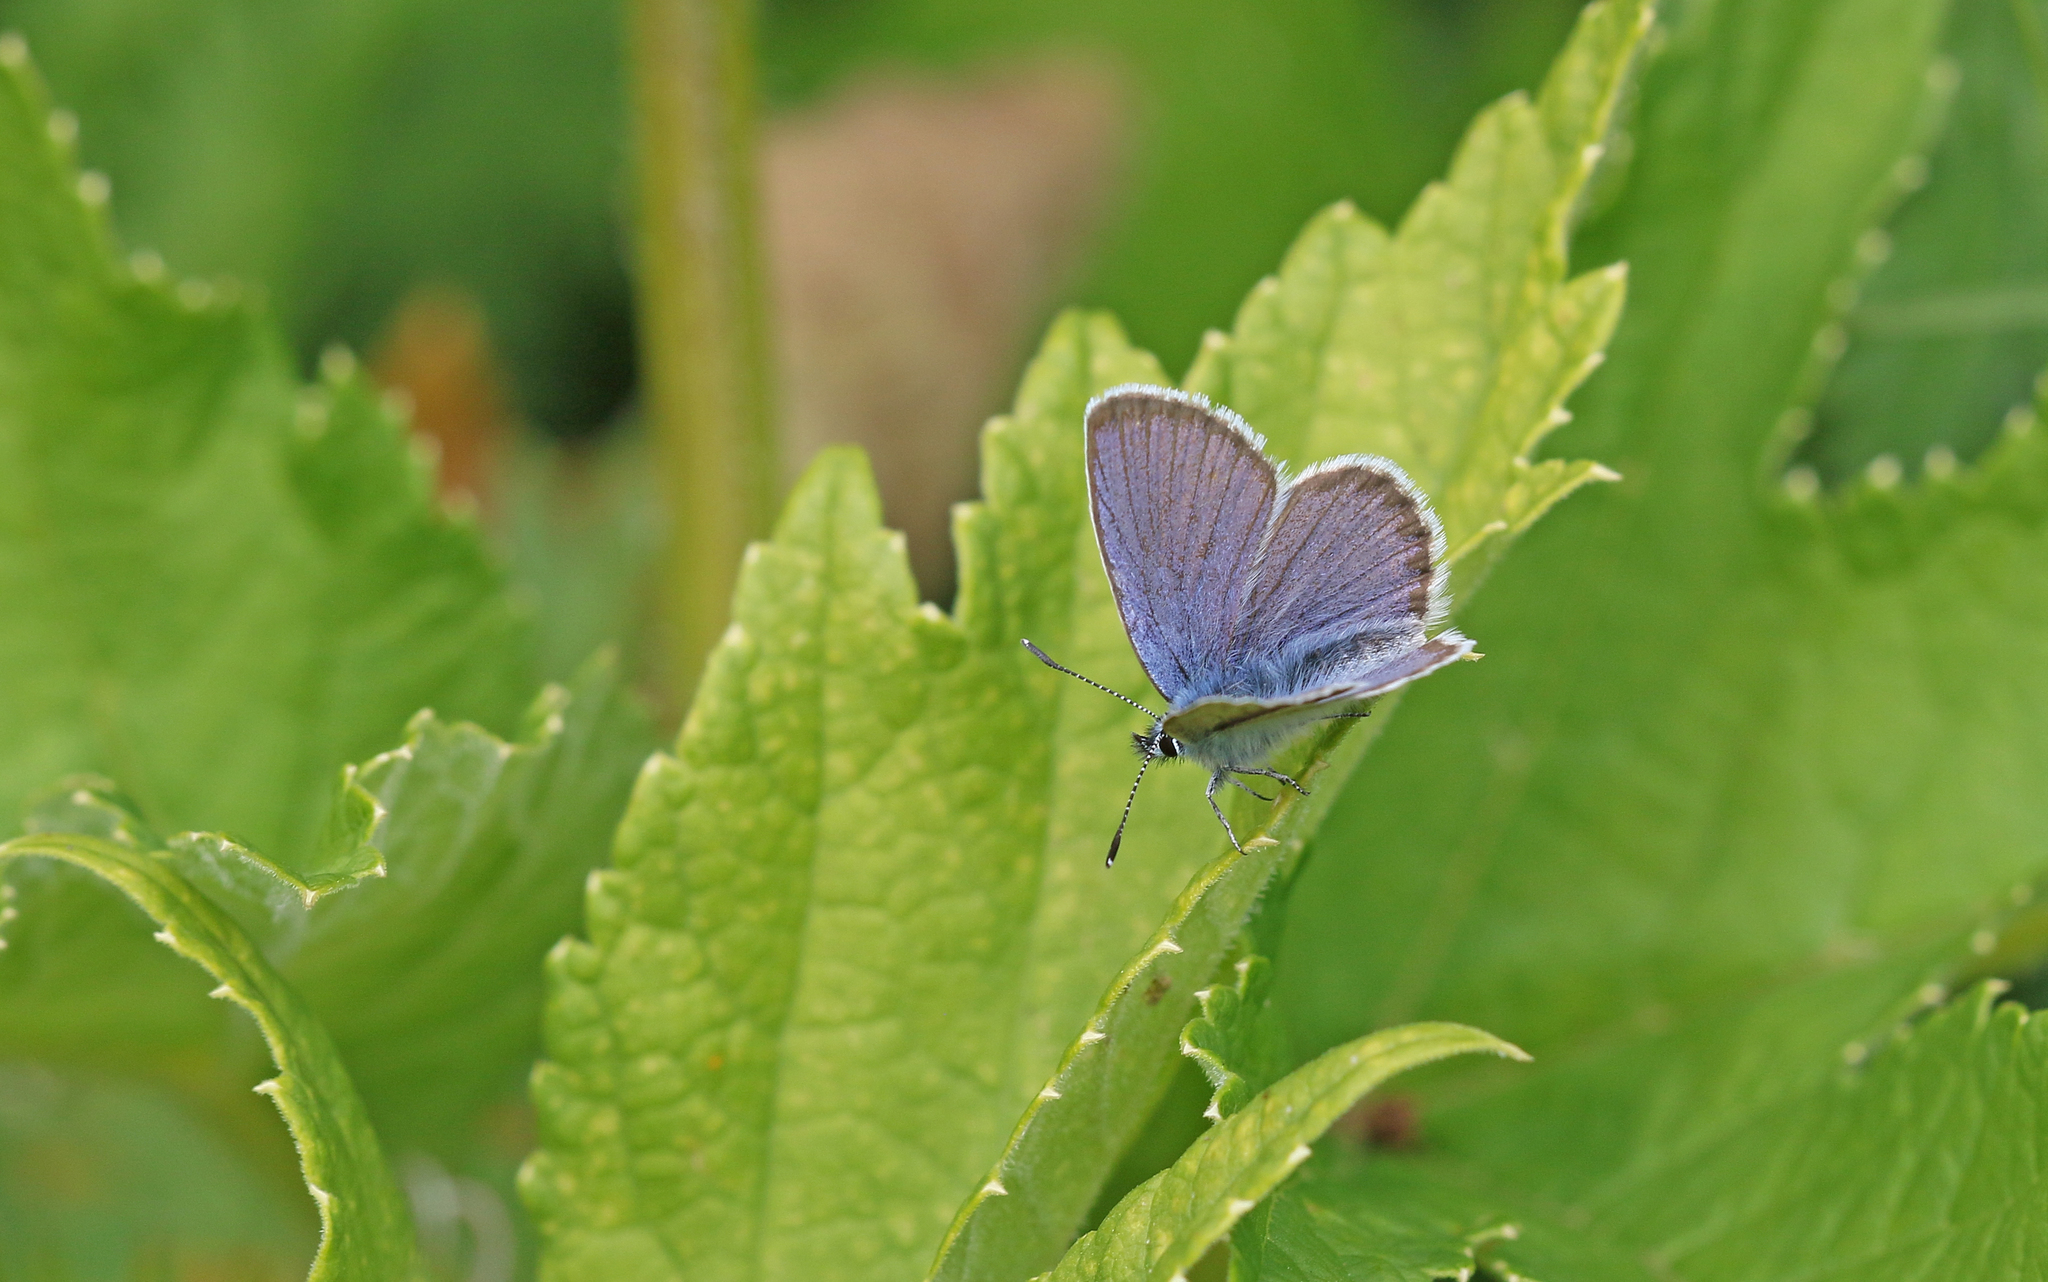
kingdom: Animalia
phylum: Arthropoda
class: Insecta
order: Lepidoptera
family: Lycaenidae
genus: Lycaeides
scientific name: Lycaeides idas
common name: Northern blue
